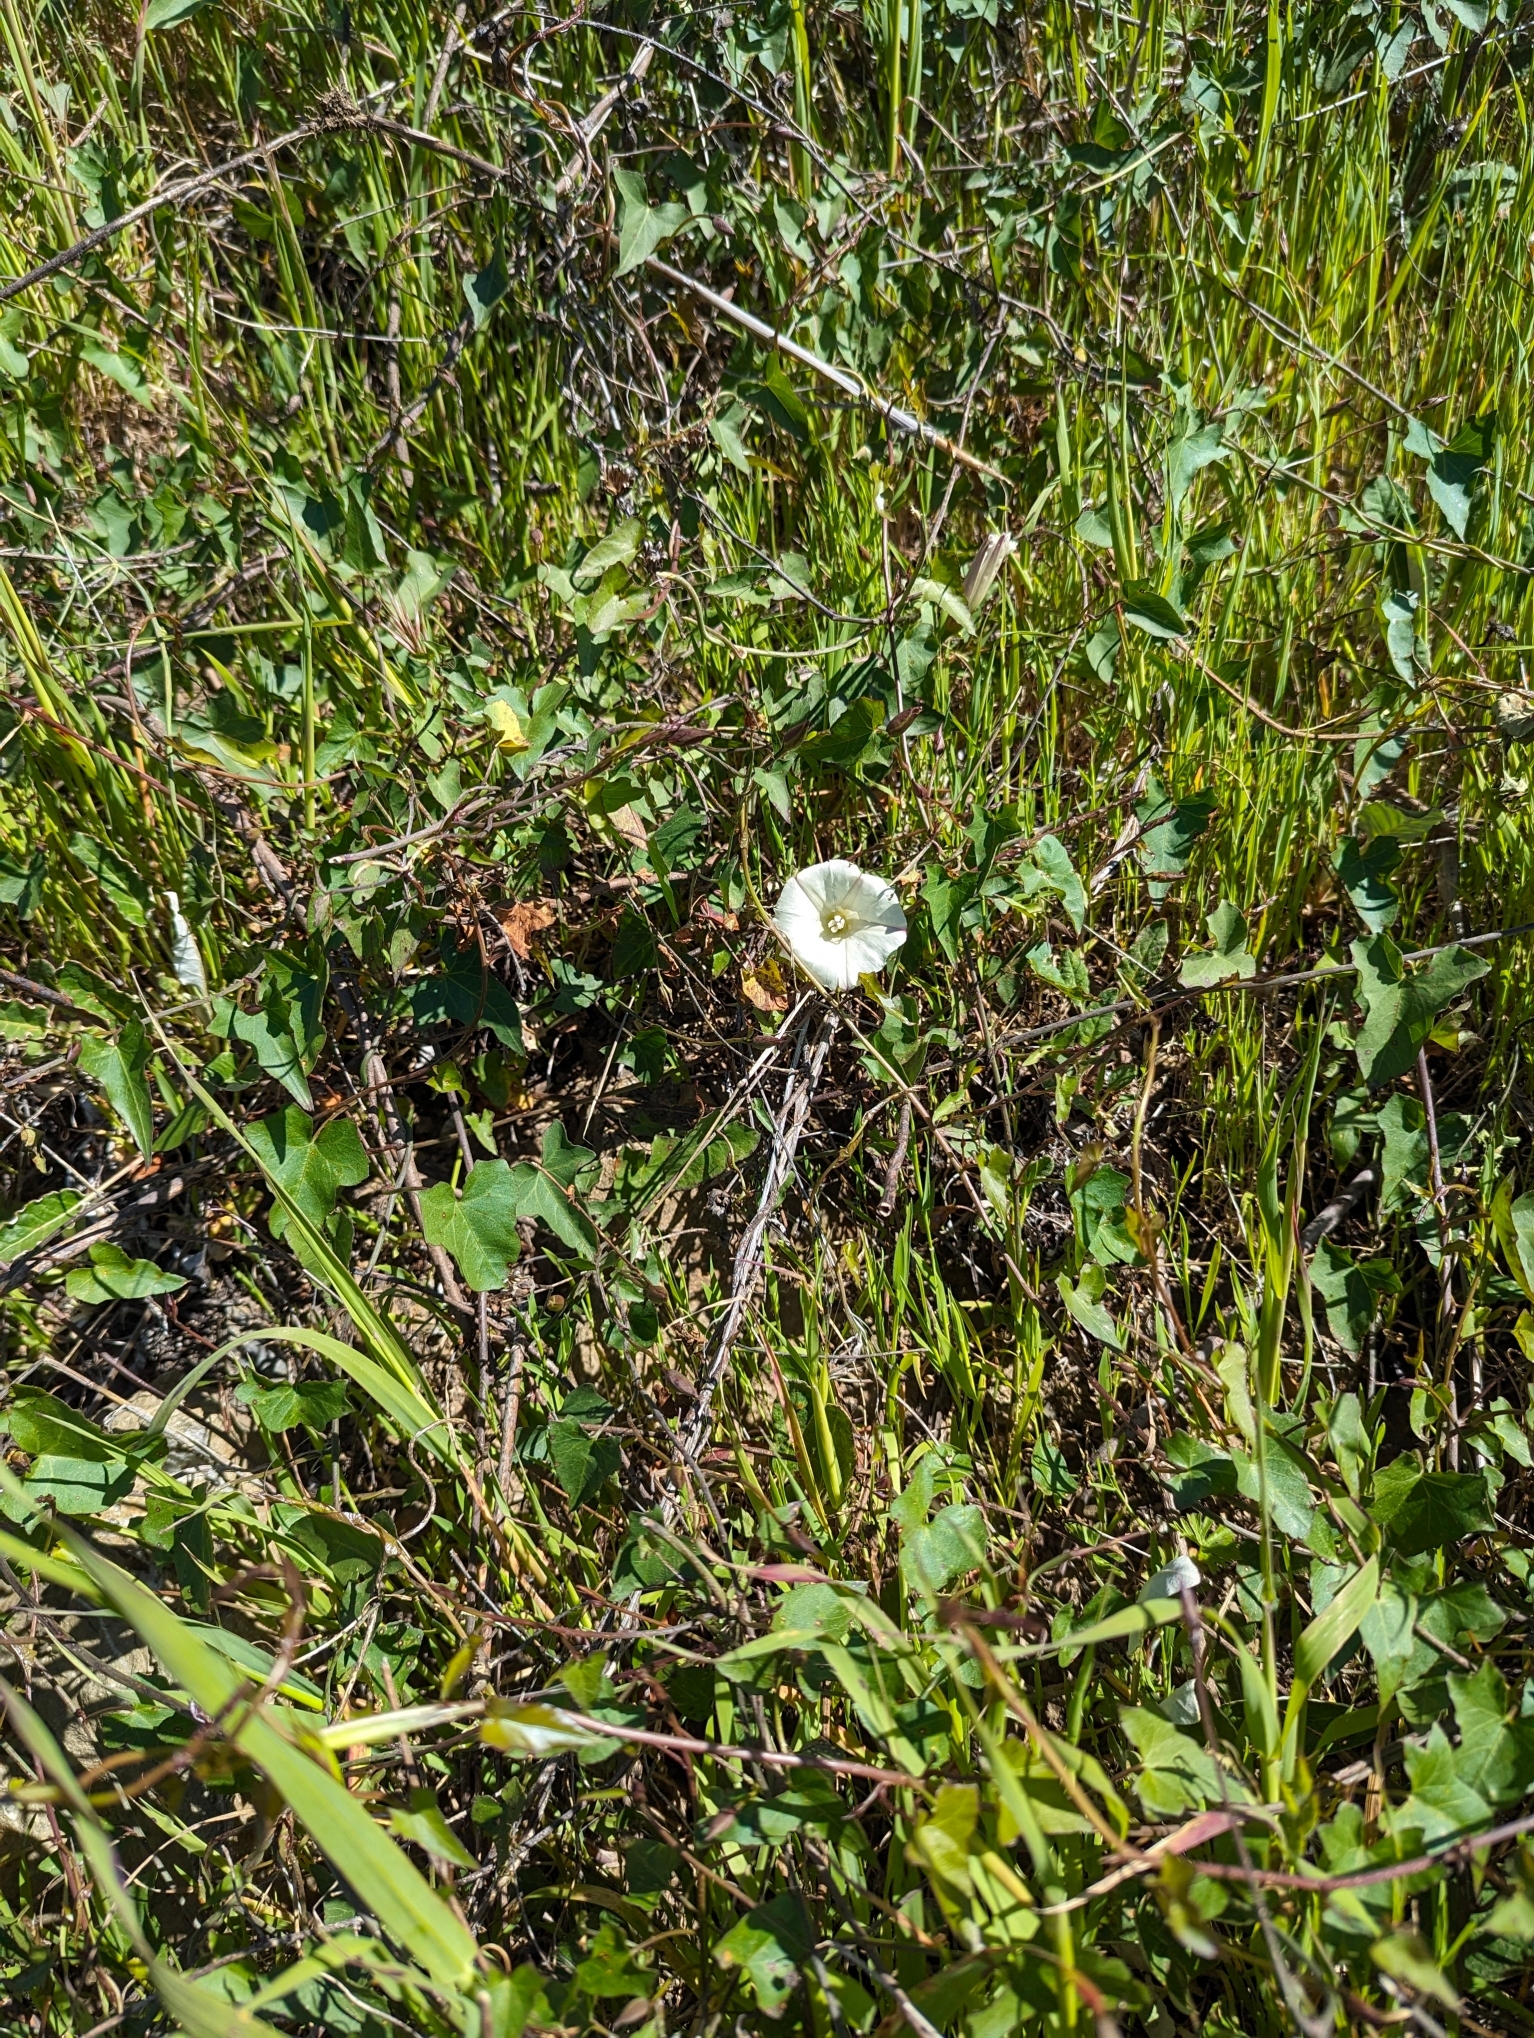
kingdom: Plantae
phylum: Tracheophyta
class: Magnoliopsida
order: Solanales
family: Convolvulaceae
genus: Calystegia
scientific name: Calystegia purpurata
